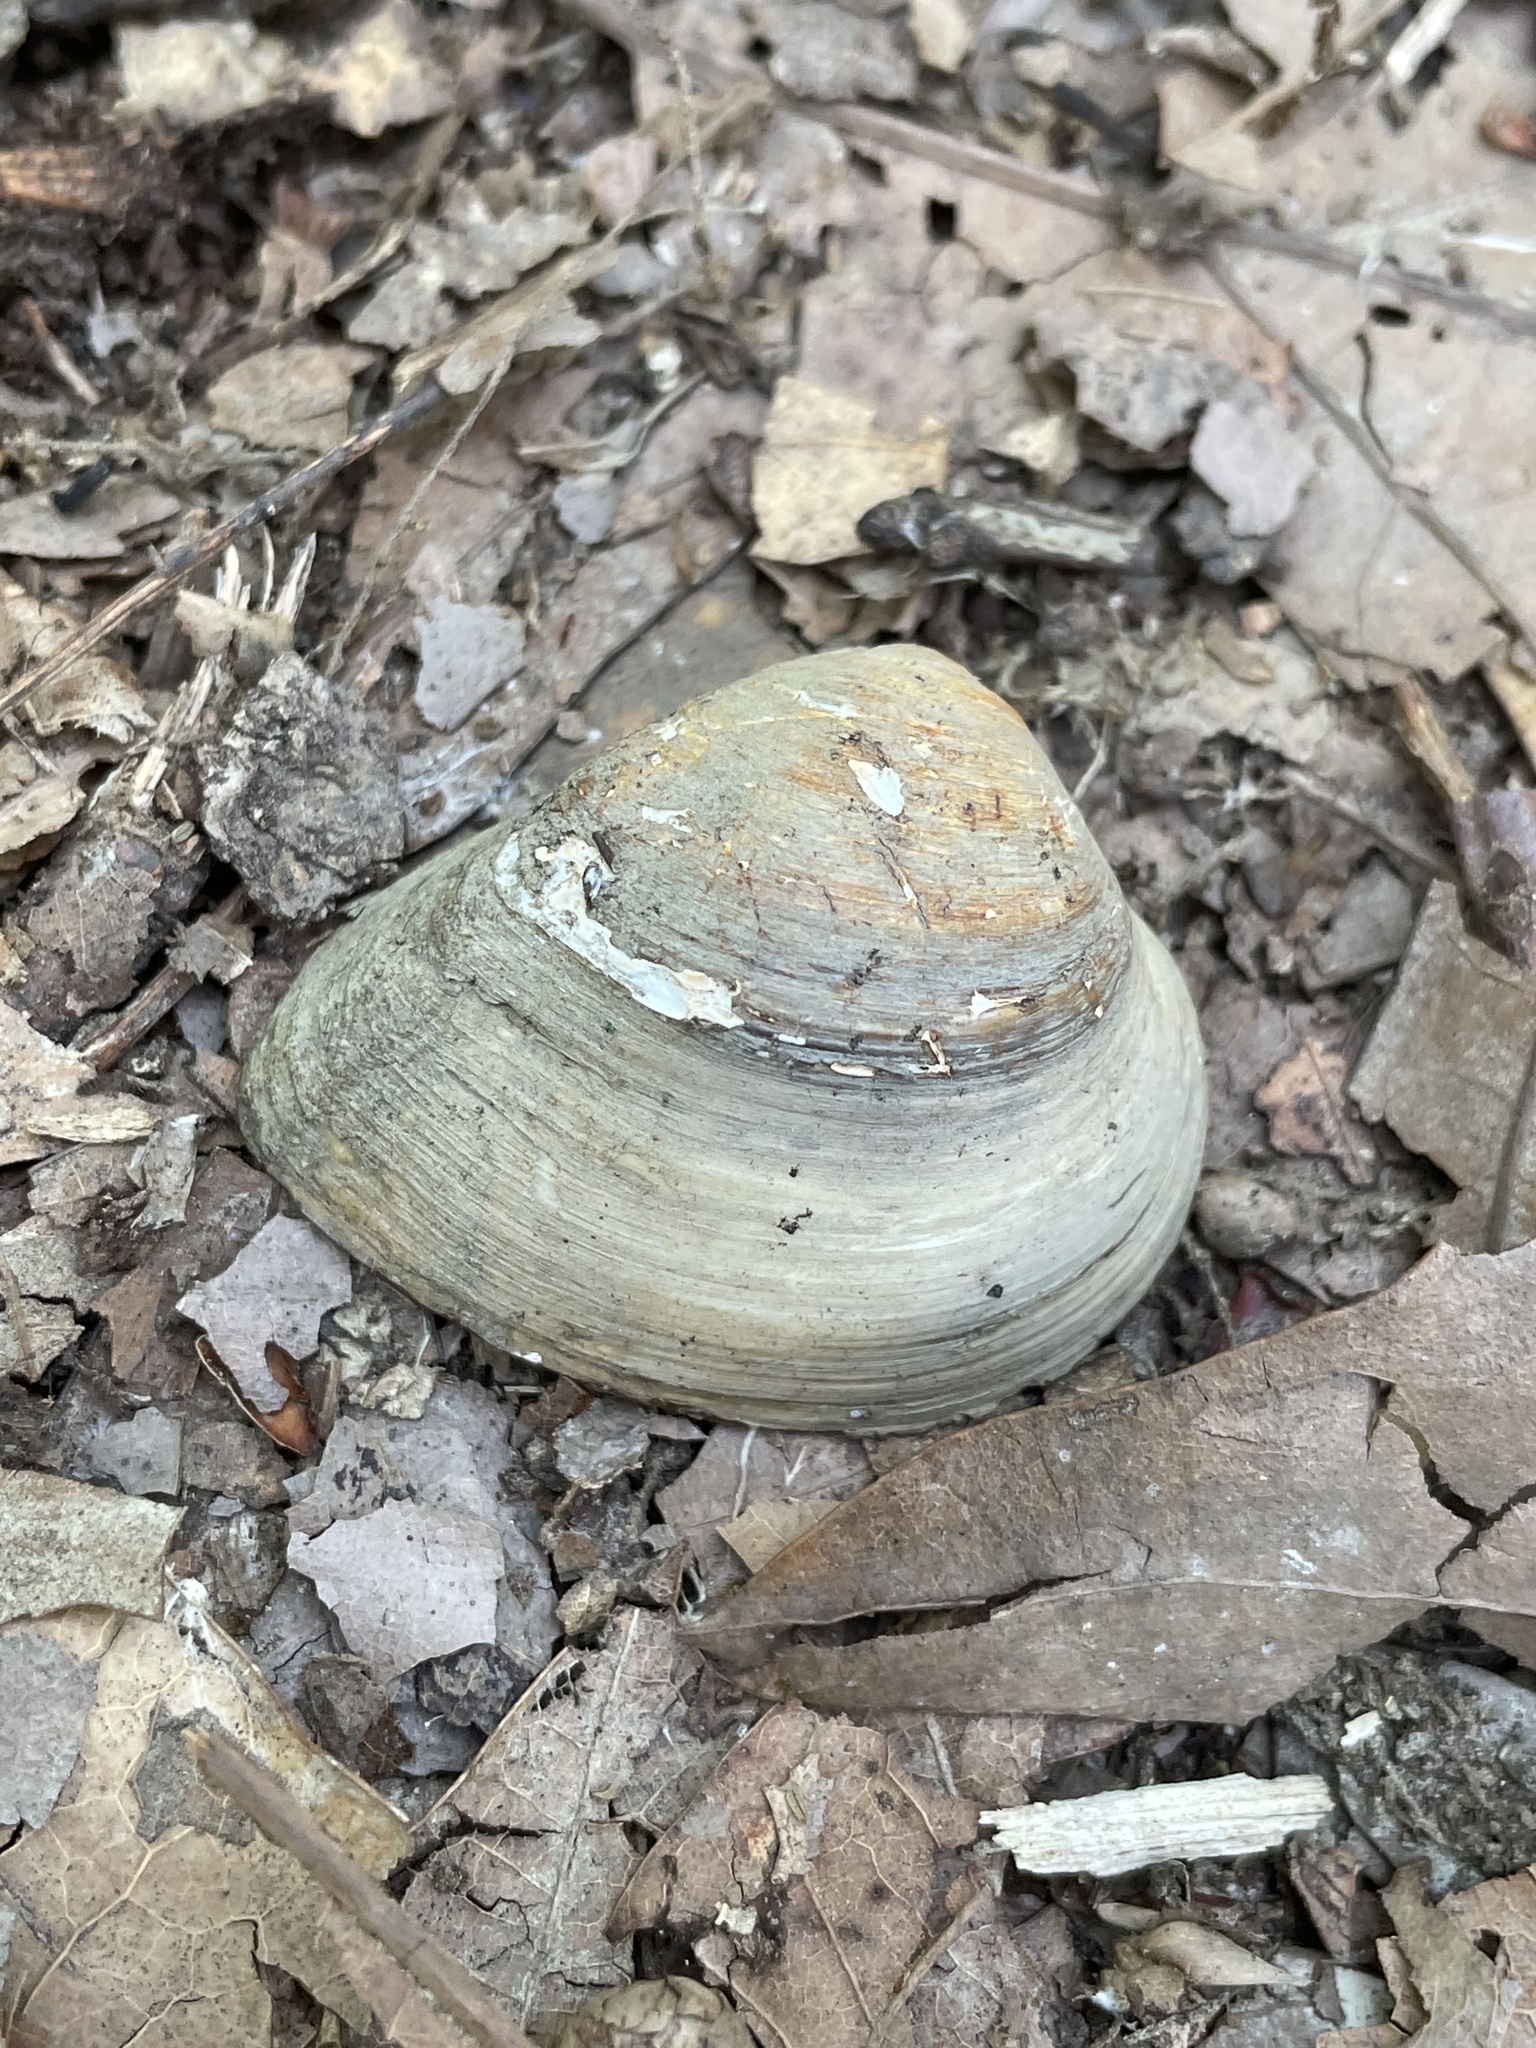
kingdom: Animalia
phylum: Mollusca
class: Bivalvia
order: Venerida
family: Mactridae
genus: Rangia
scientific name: Rangia cuneata
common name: Atlantic rangia
